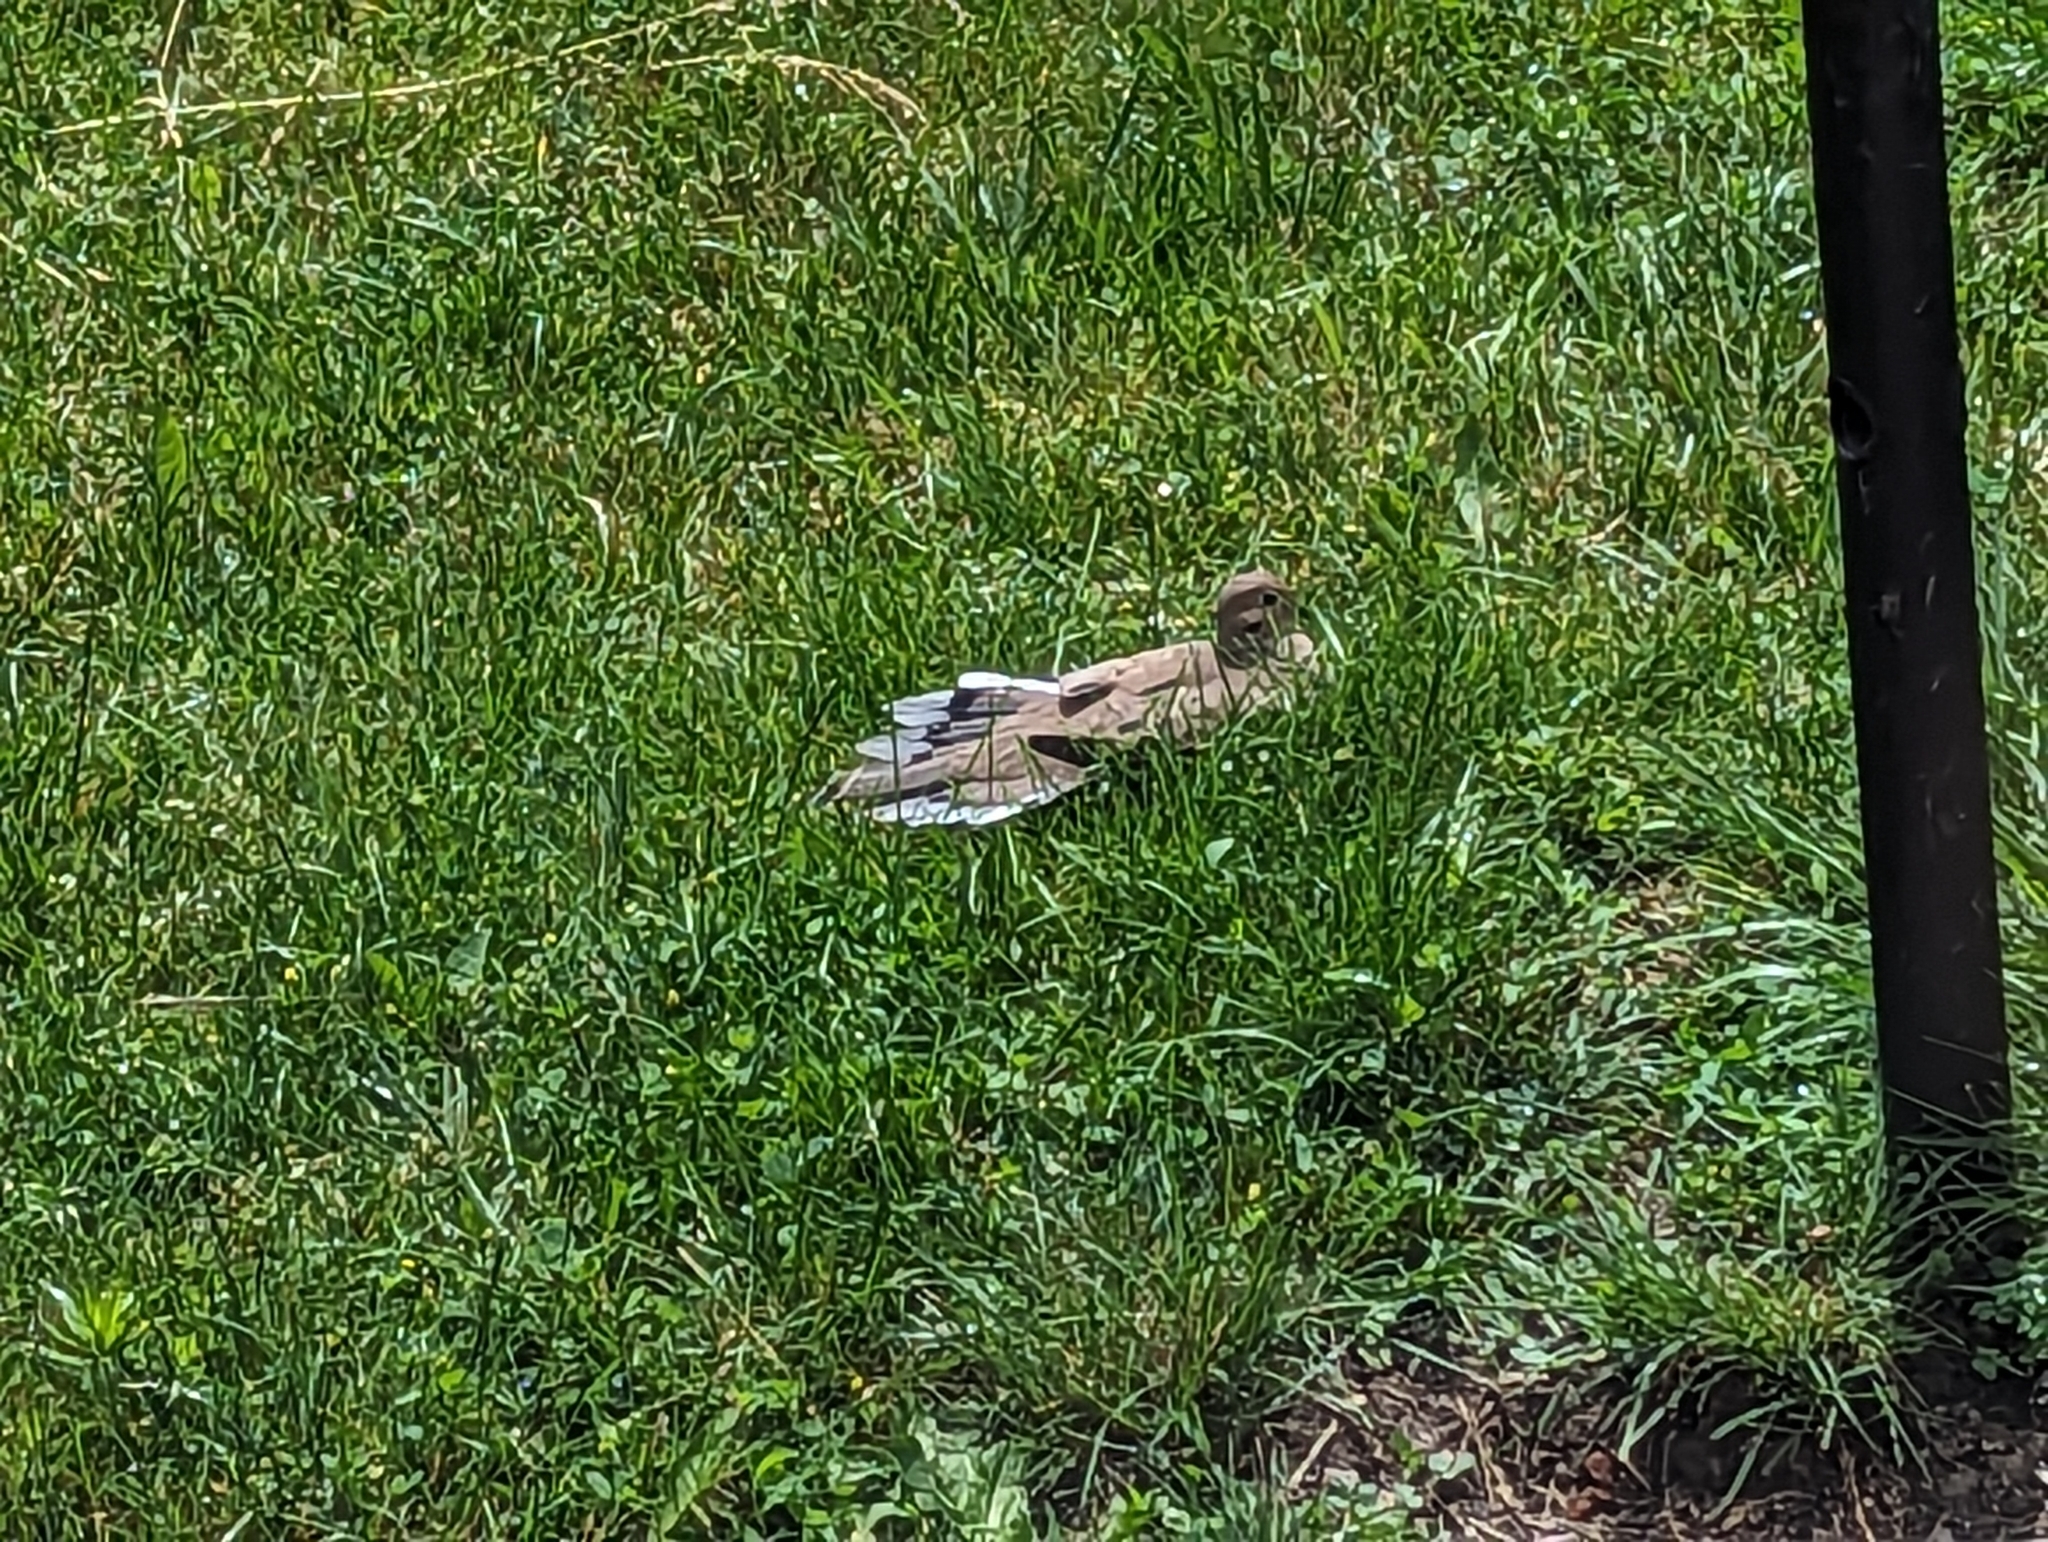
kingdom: Animalia
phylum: Chordata
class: Aves
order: Columbiformes
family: Columbidae
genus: Zenaida
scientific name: Zenaida macroura
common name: Mourning dove
